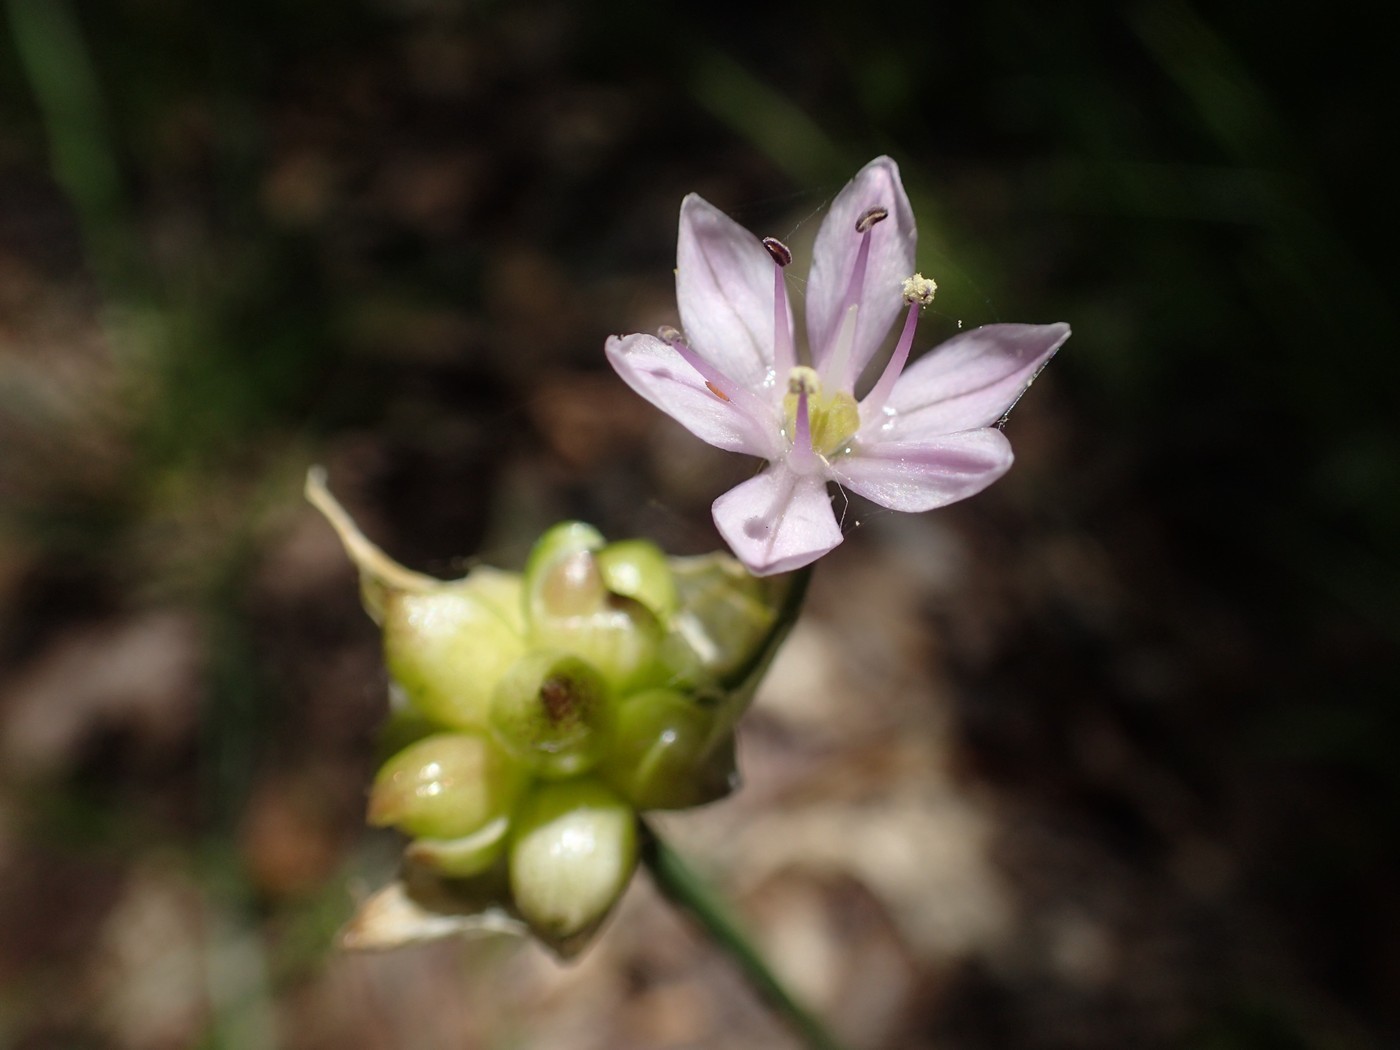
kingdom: Plantae
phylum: Tracheophyta
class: Liliopsida
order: Asparagales
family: Amaryllidaceae
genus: Allium
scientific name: Allium canadense
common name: Meadow garlic
